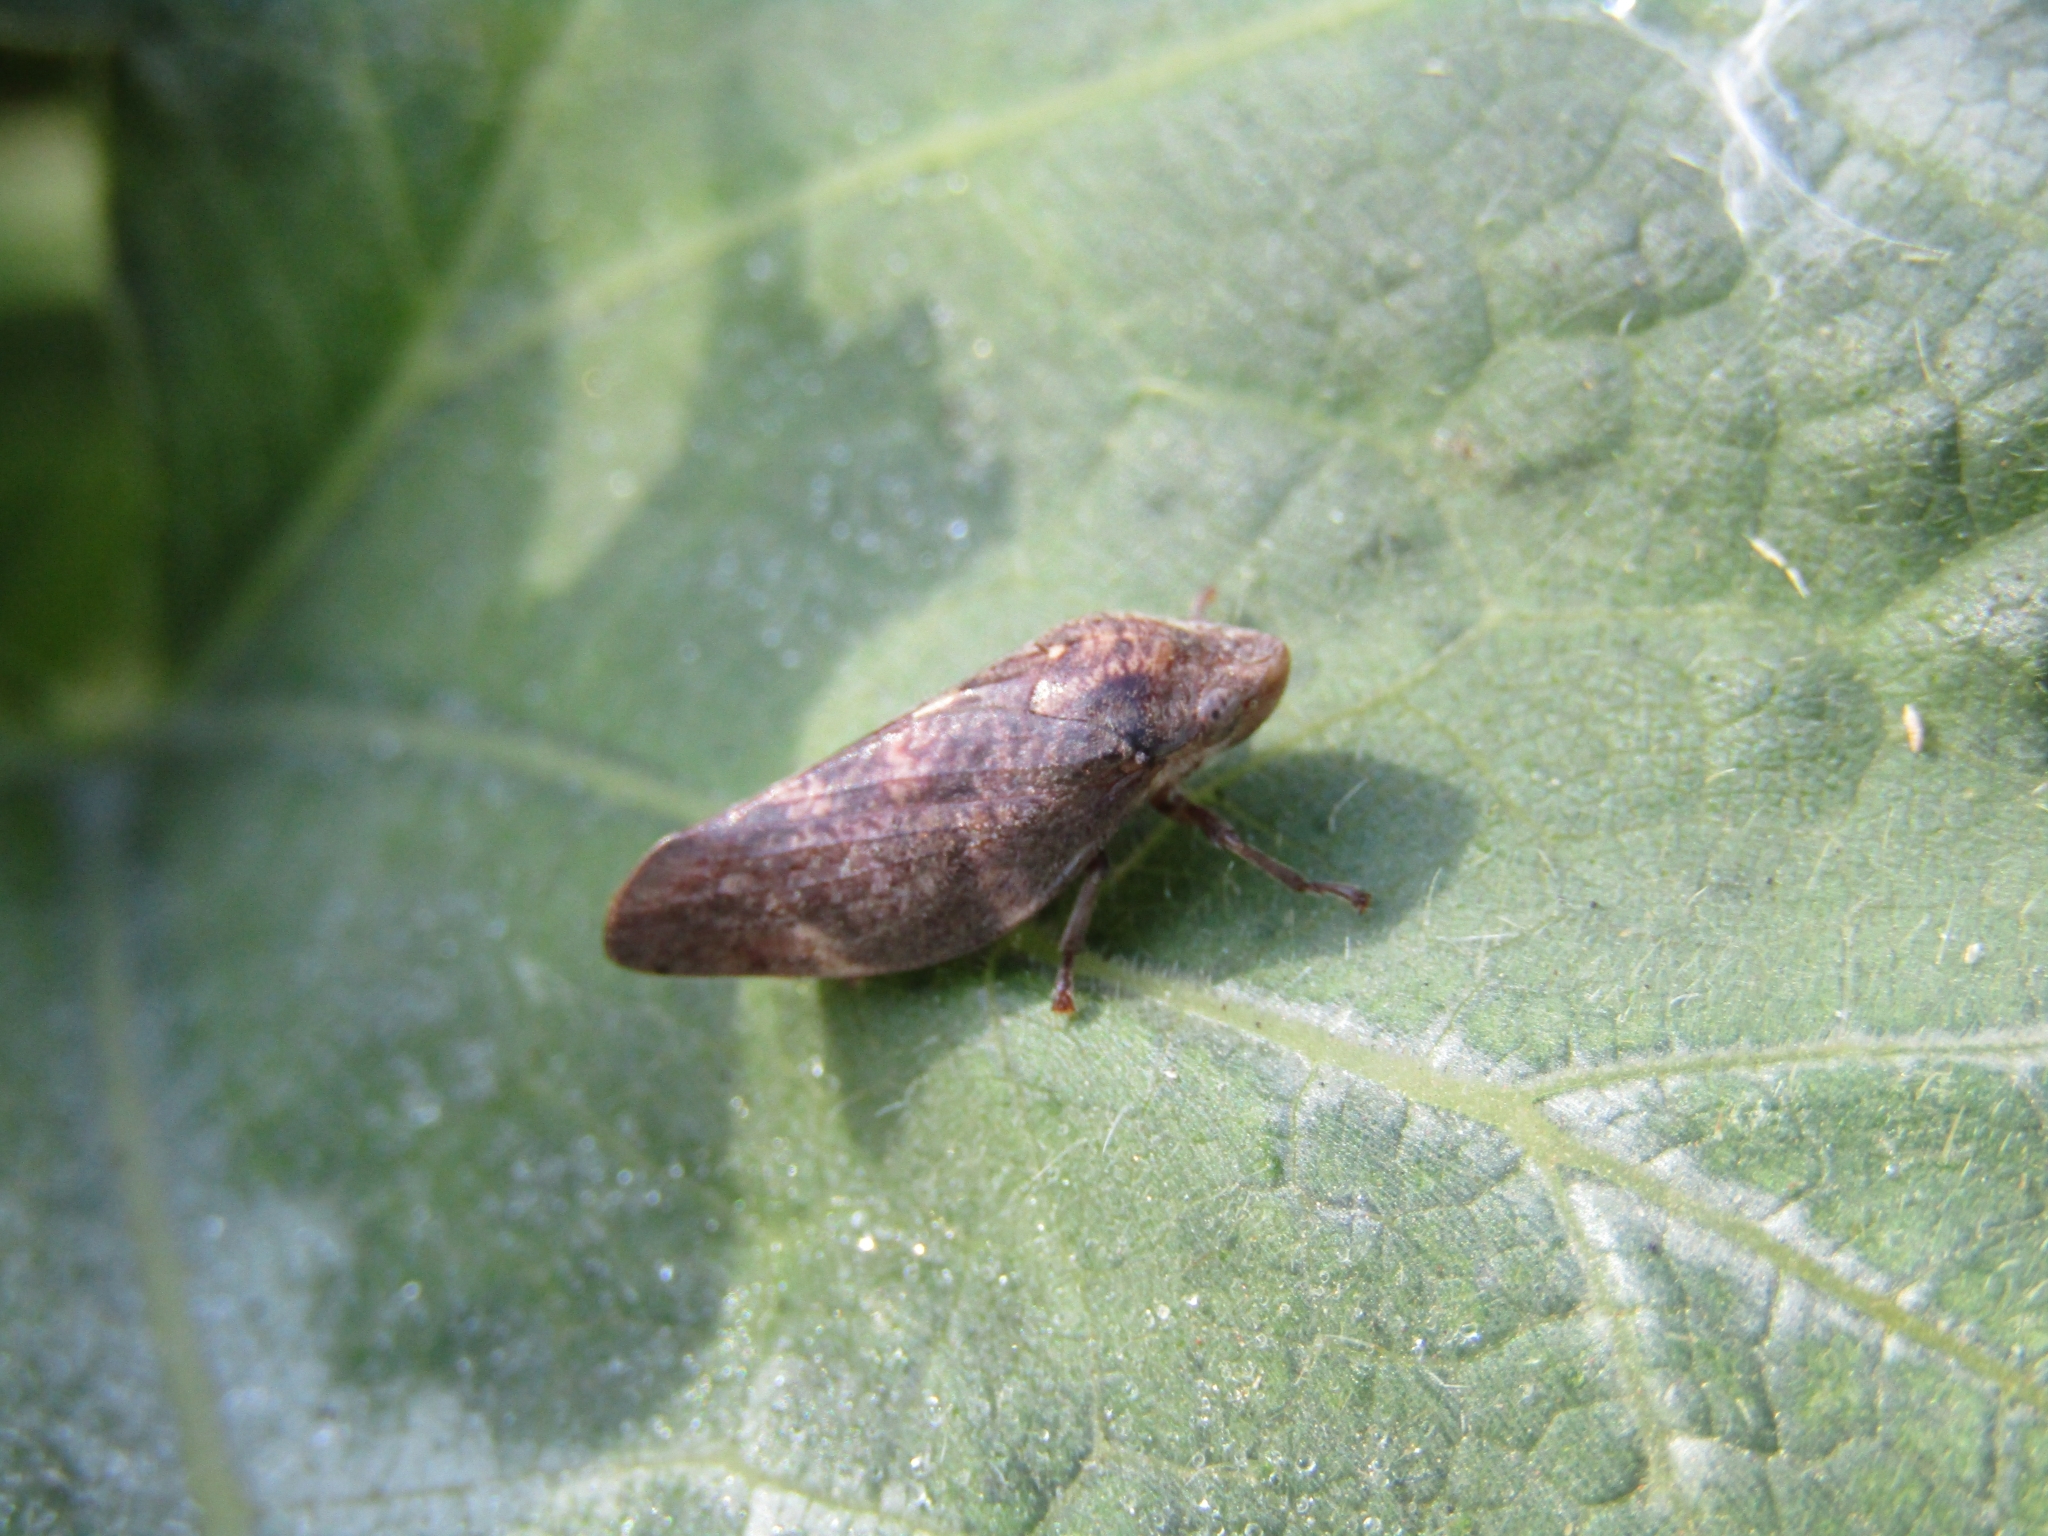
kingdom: Animalia
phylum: Arthropoda
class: Insecta
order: Hemiptera
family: Aphrophoridae
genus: Cephisus
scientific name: Cephisus siccifolius
